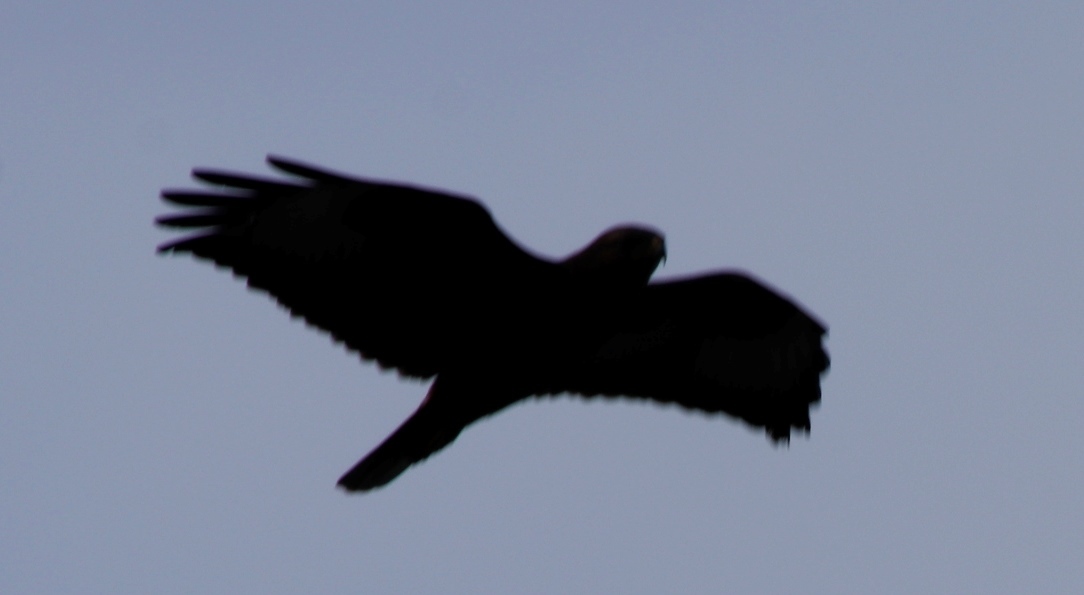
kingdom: Animalia
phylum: Chordata
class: Aves
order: Accipitriformes
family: Accipitridae
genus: Buteo
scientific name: Buteo buteo
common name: Common buzzard
